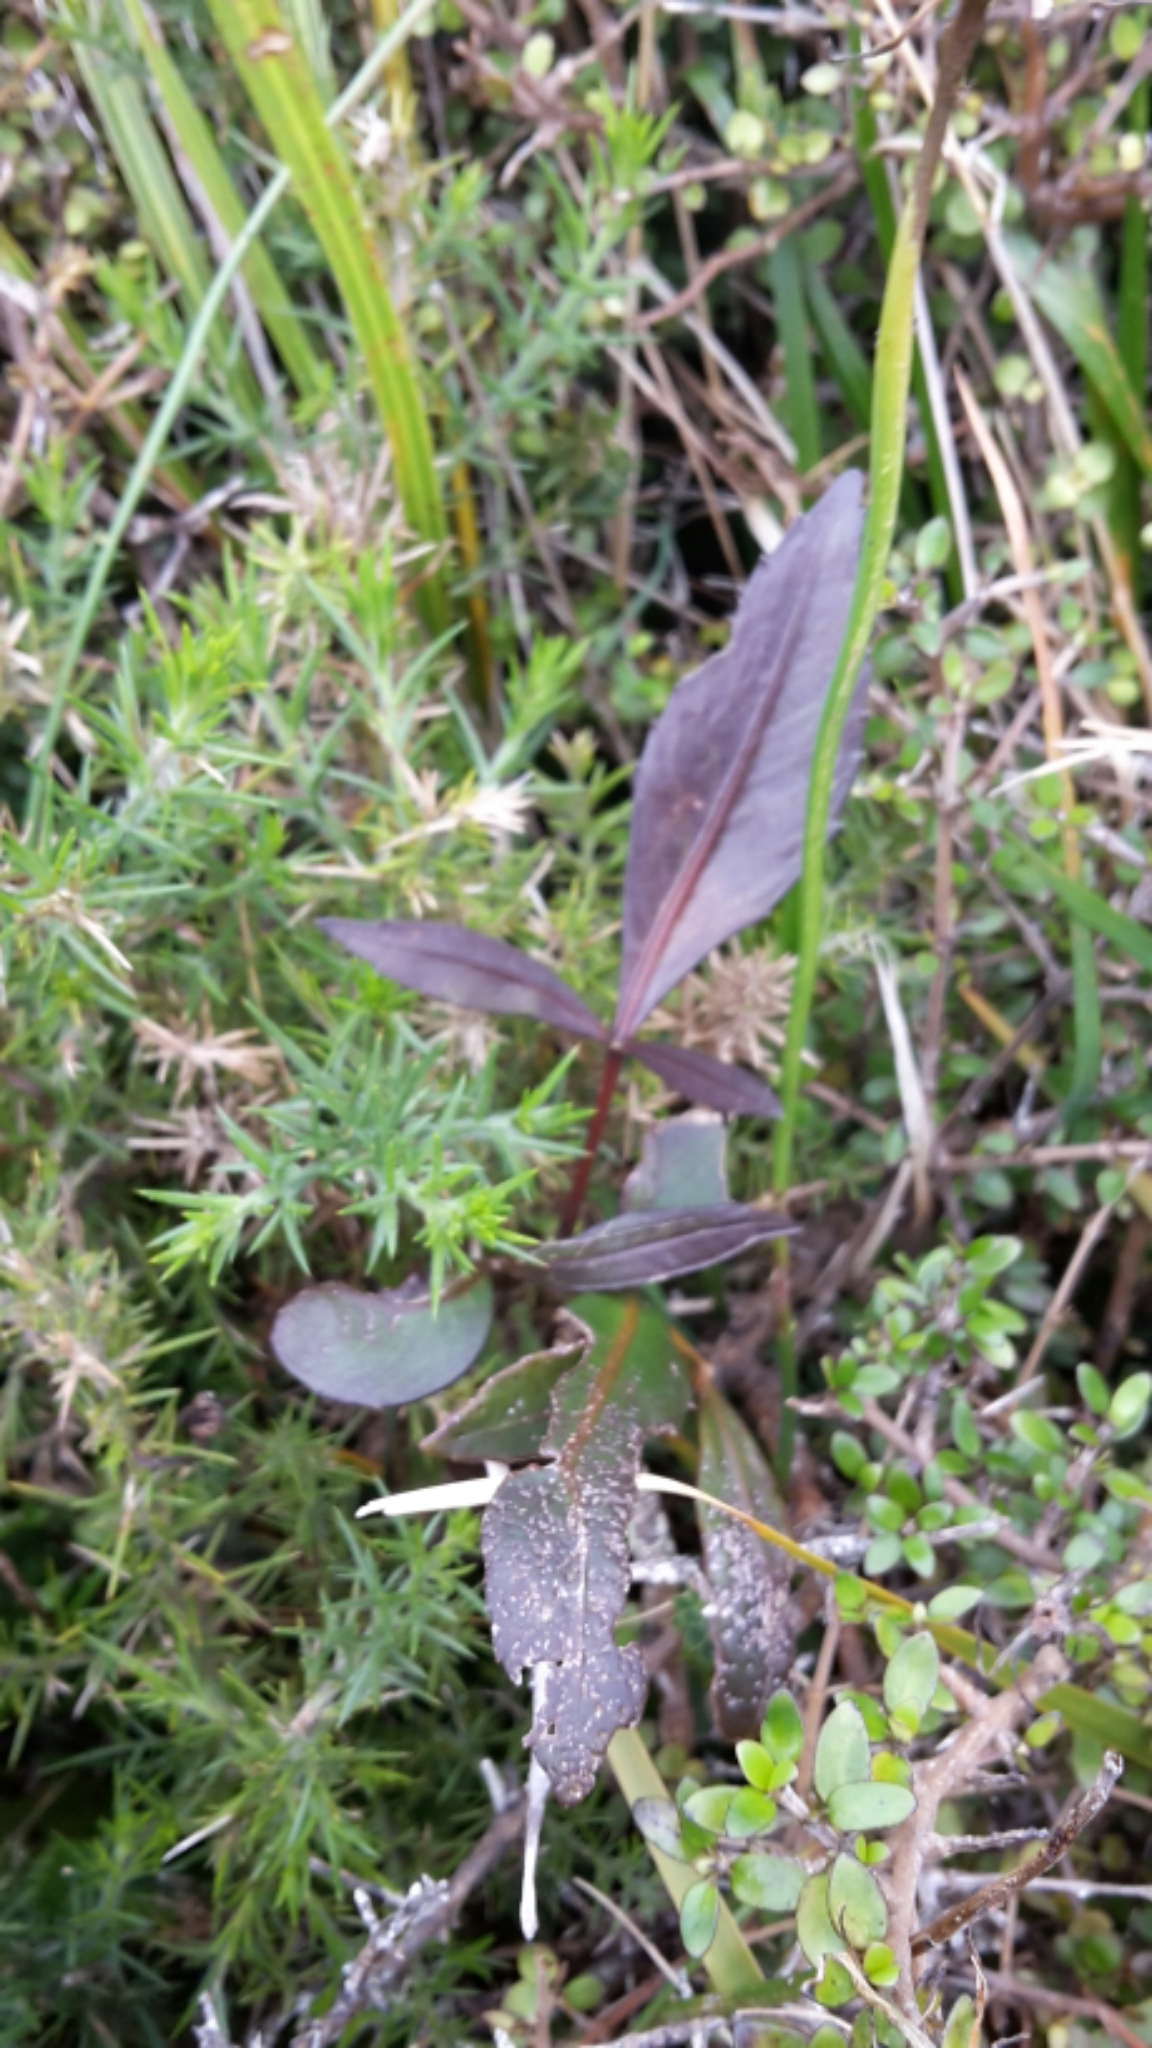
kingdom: Plantae
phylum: Tracheophyta
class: Magnoliopsida
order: Apiales
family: Araliaceae
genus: Pseudopanax
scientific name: Pseudopanax
